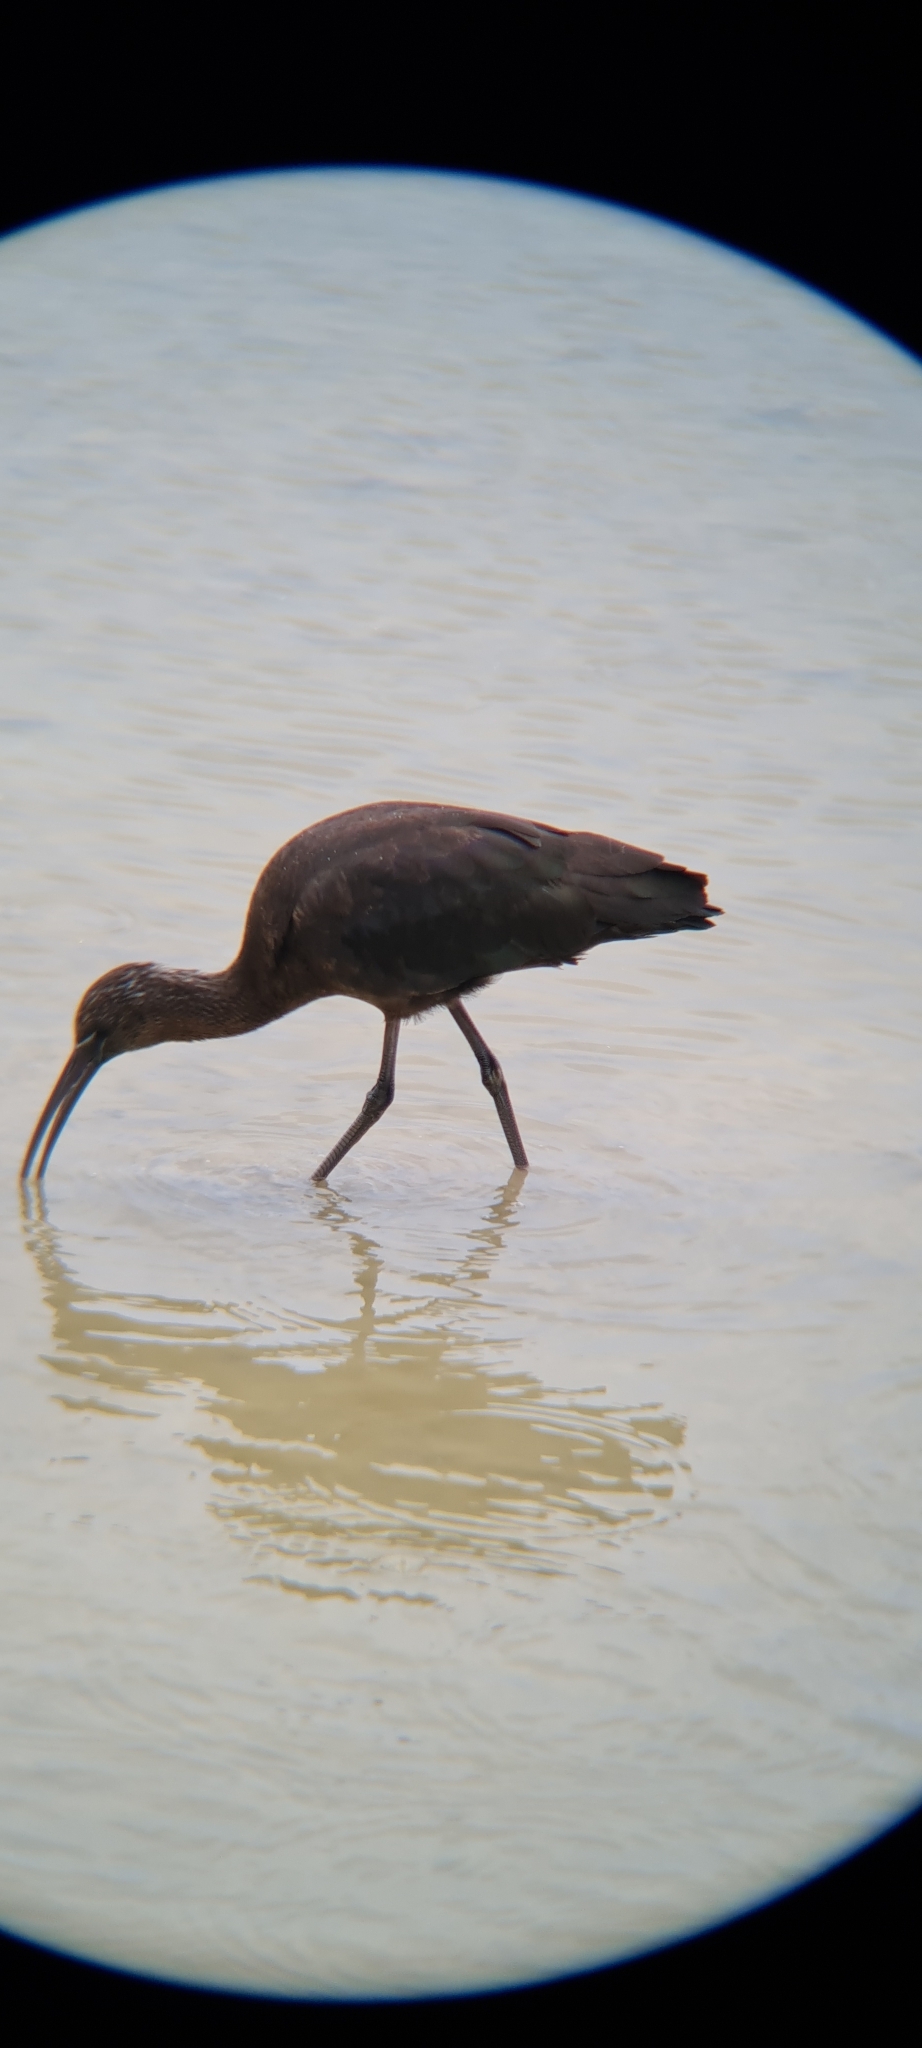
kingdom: Animalia
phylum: Chordata
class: Aves
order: Pelecaniformes
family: Threskiornithidae
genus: Plegadis
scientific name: Plegadis falcinellus
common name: Glossy ibis
